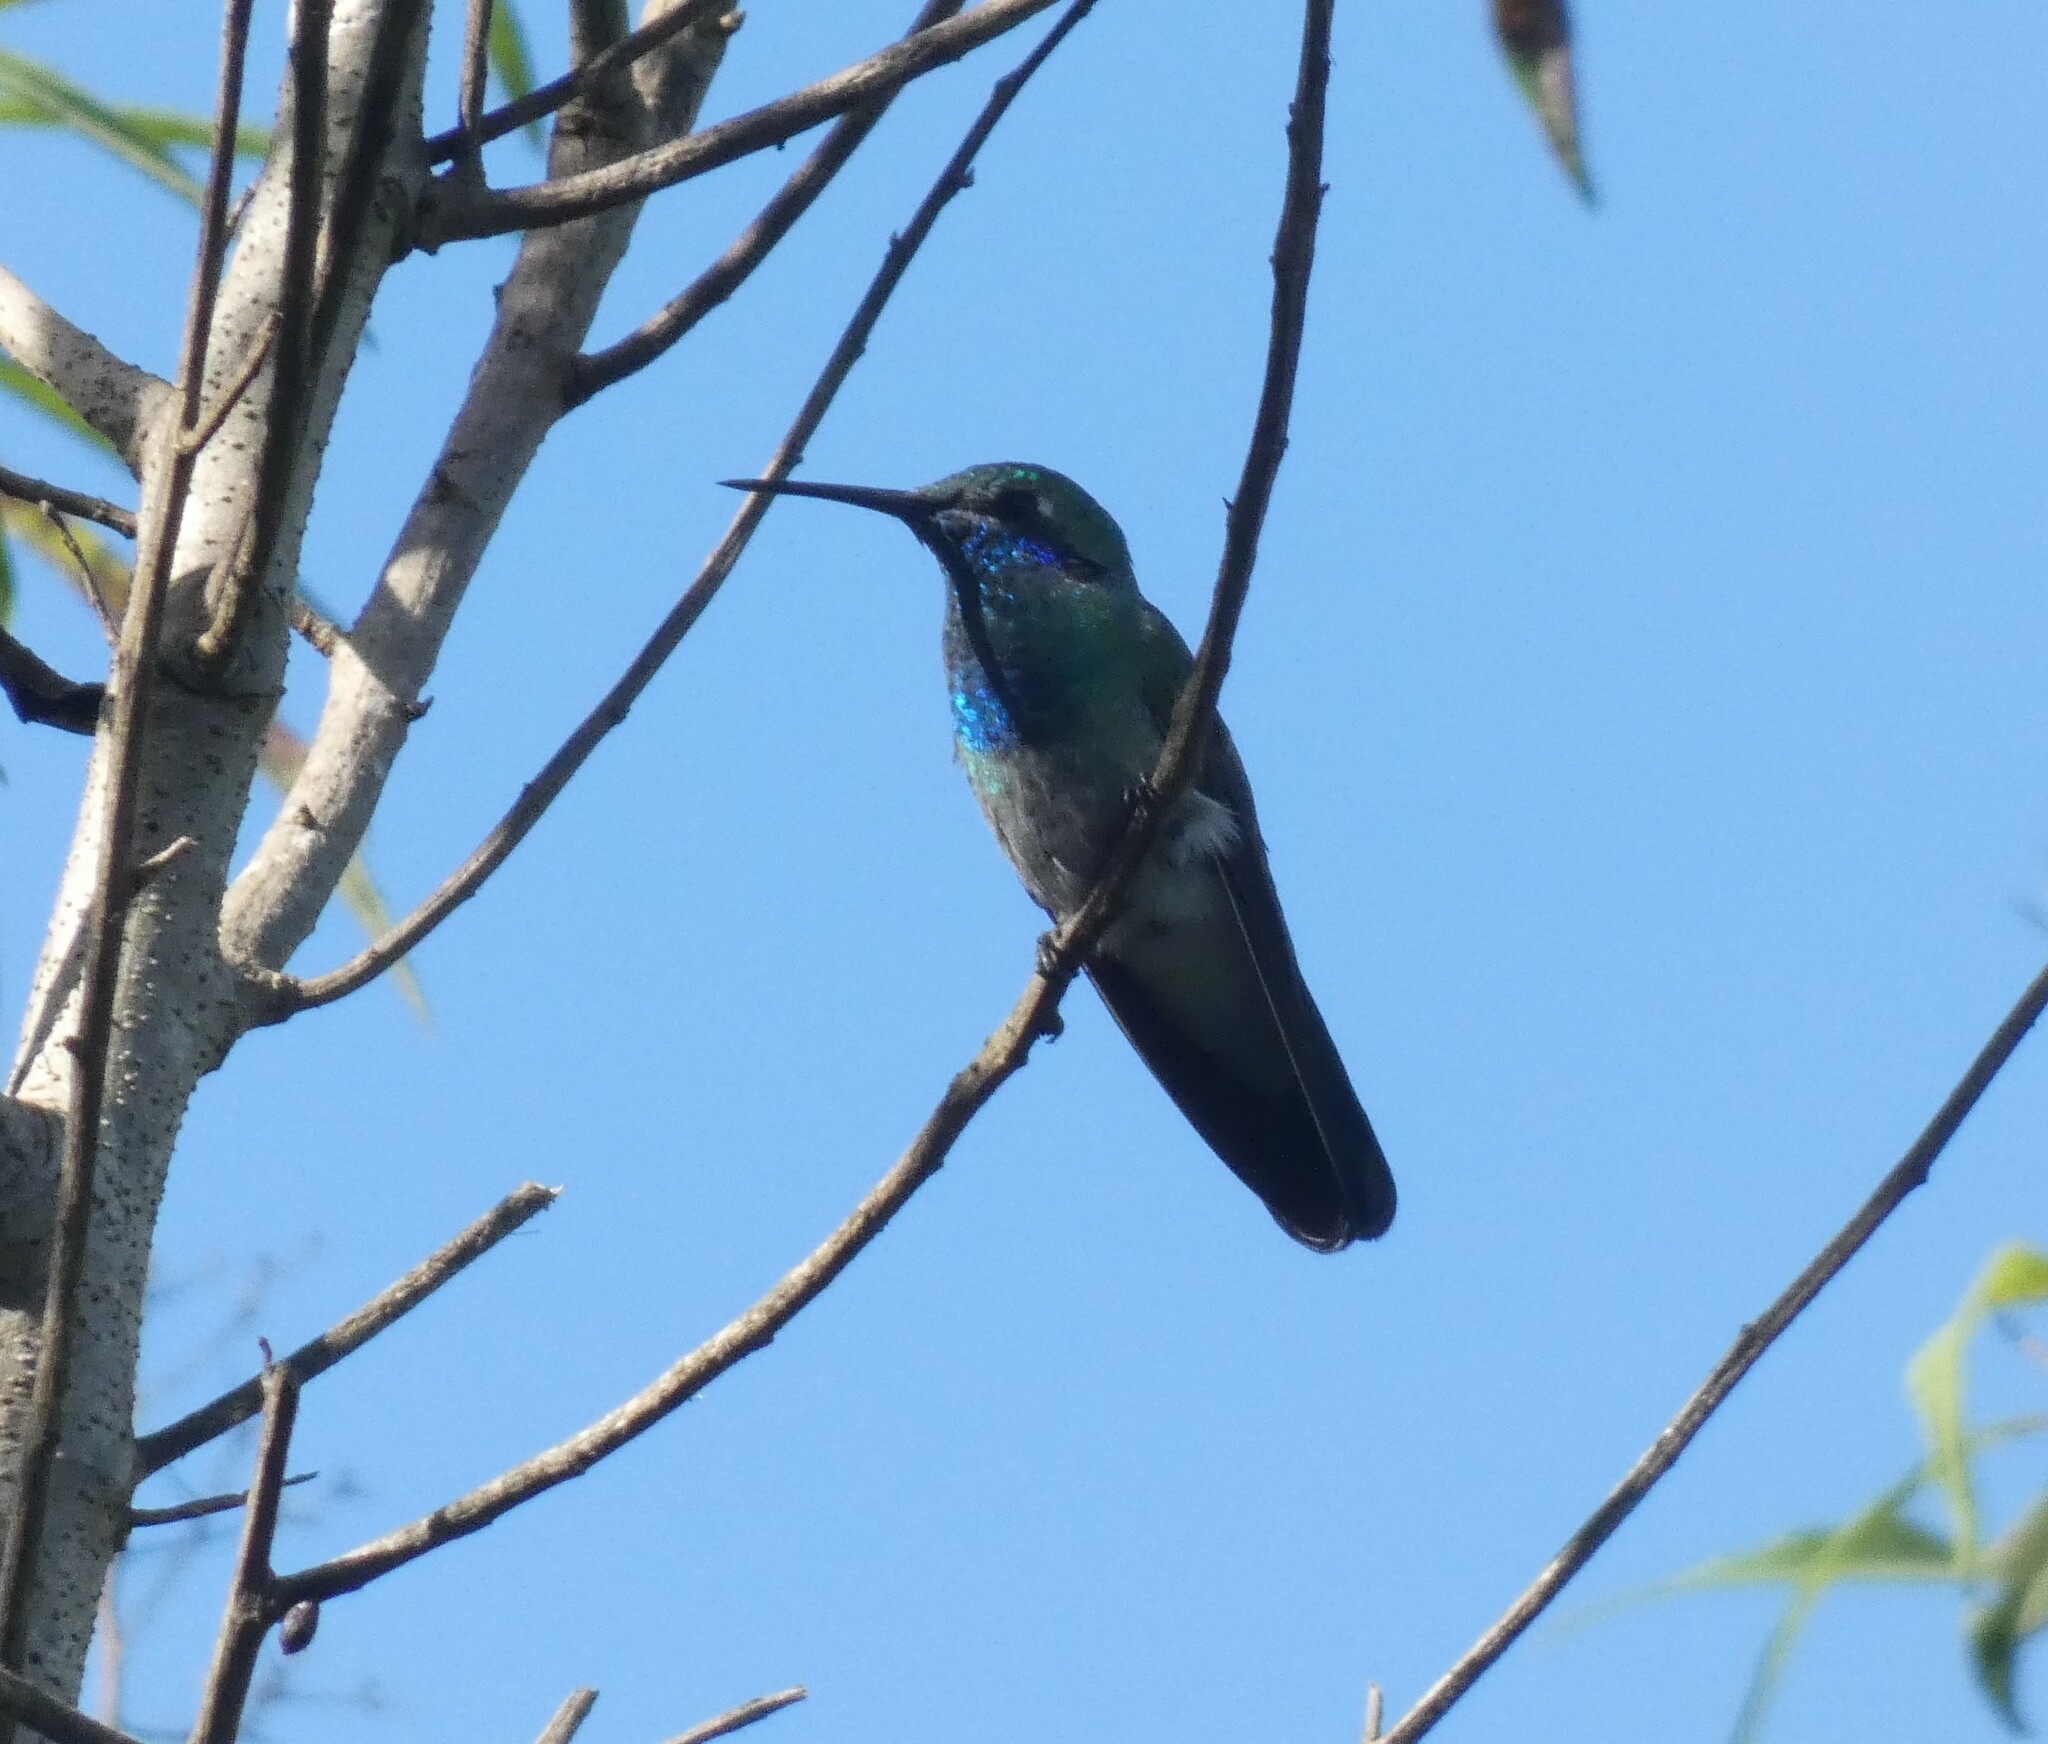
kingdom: Animalia
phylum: Chordata
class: Aves
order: Apodiformes
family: Trochilidae
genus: Colibri
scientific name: Colibri serrirostris
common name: White-vented violetear
